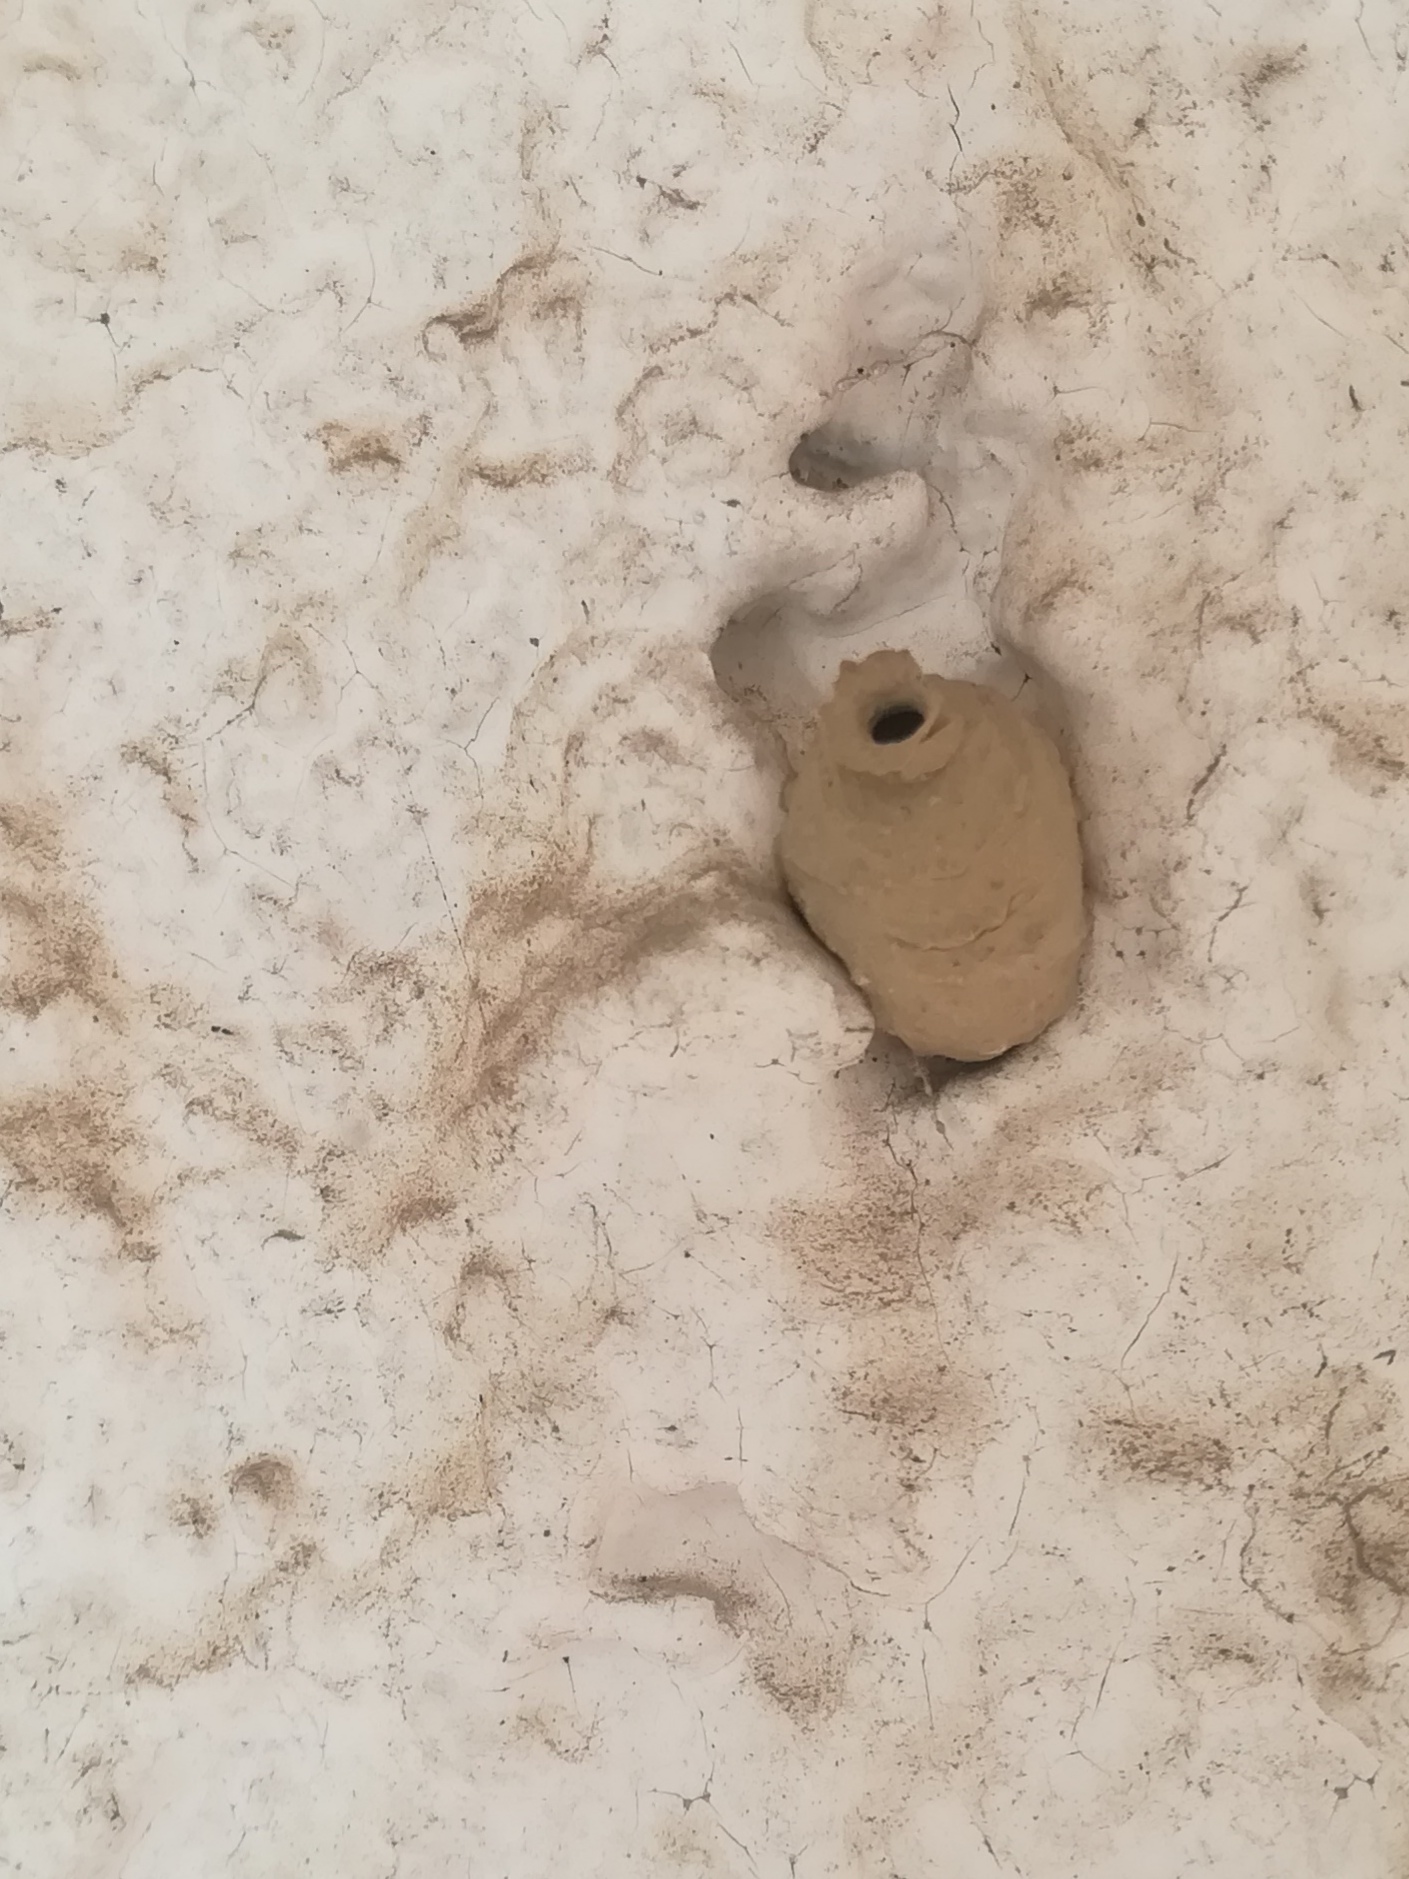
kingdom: Animalia
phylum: Arthropoda
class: Insecta
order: Hymenoptera
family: Eumenidae
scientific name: Eumenidae
